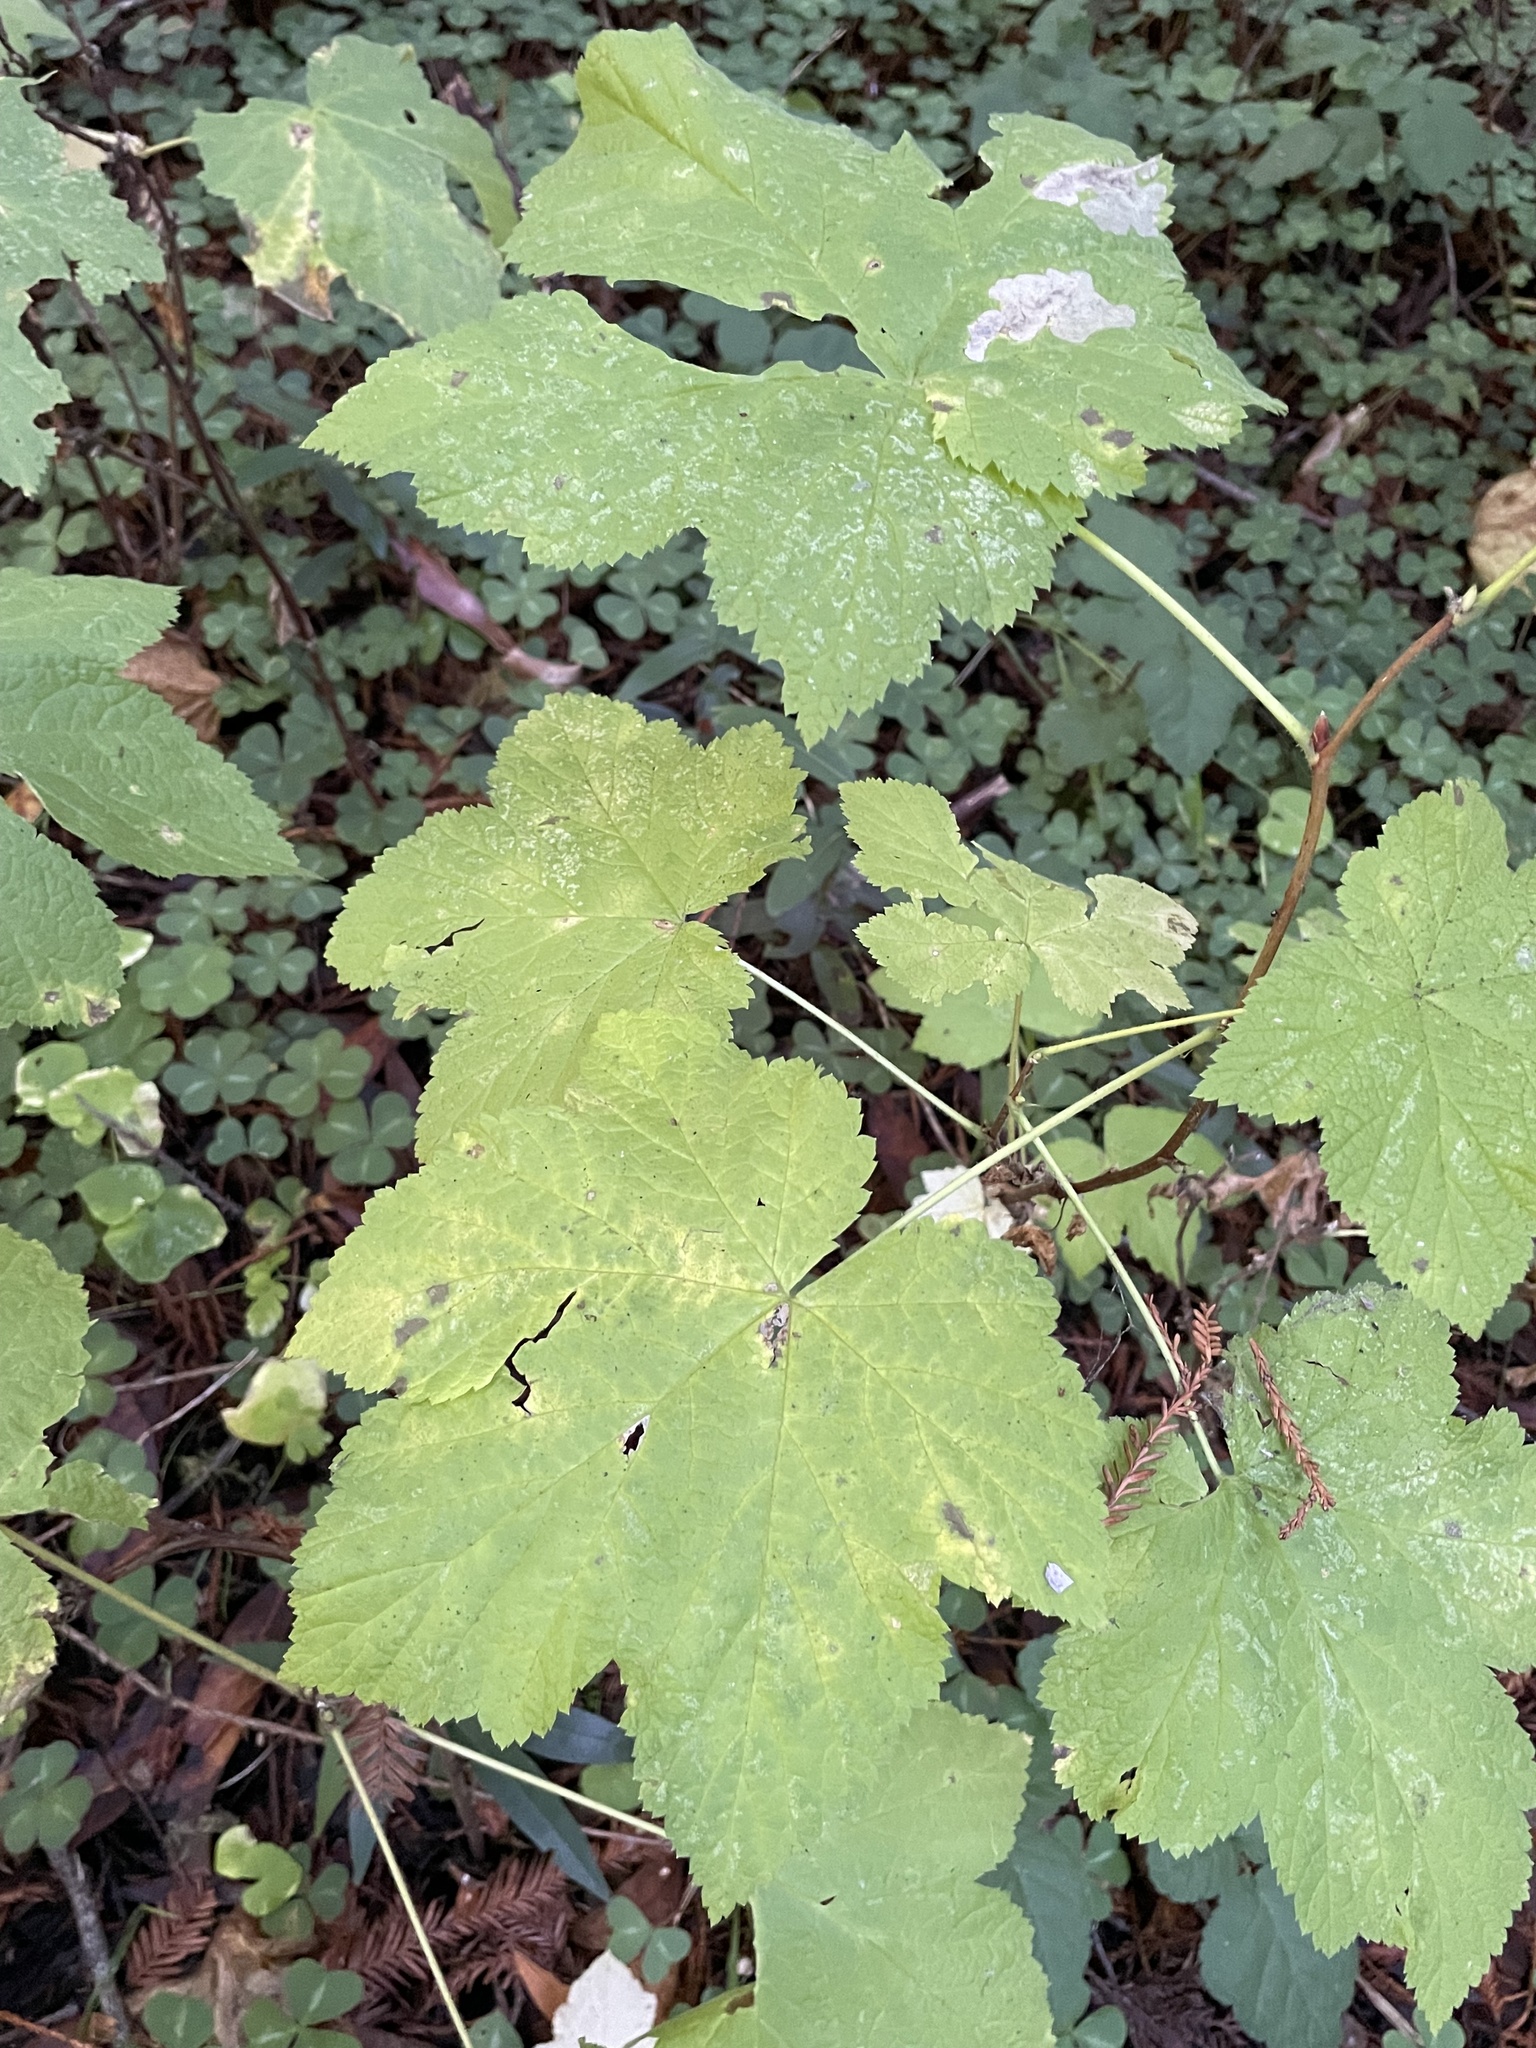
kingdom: Plantae
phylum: Tracheophyta
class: Magnoliopsida
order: Rosales
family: Rosaceae
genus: Rubus
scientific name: Rubus parviflorus
